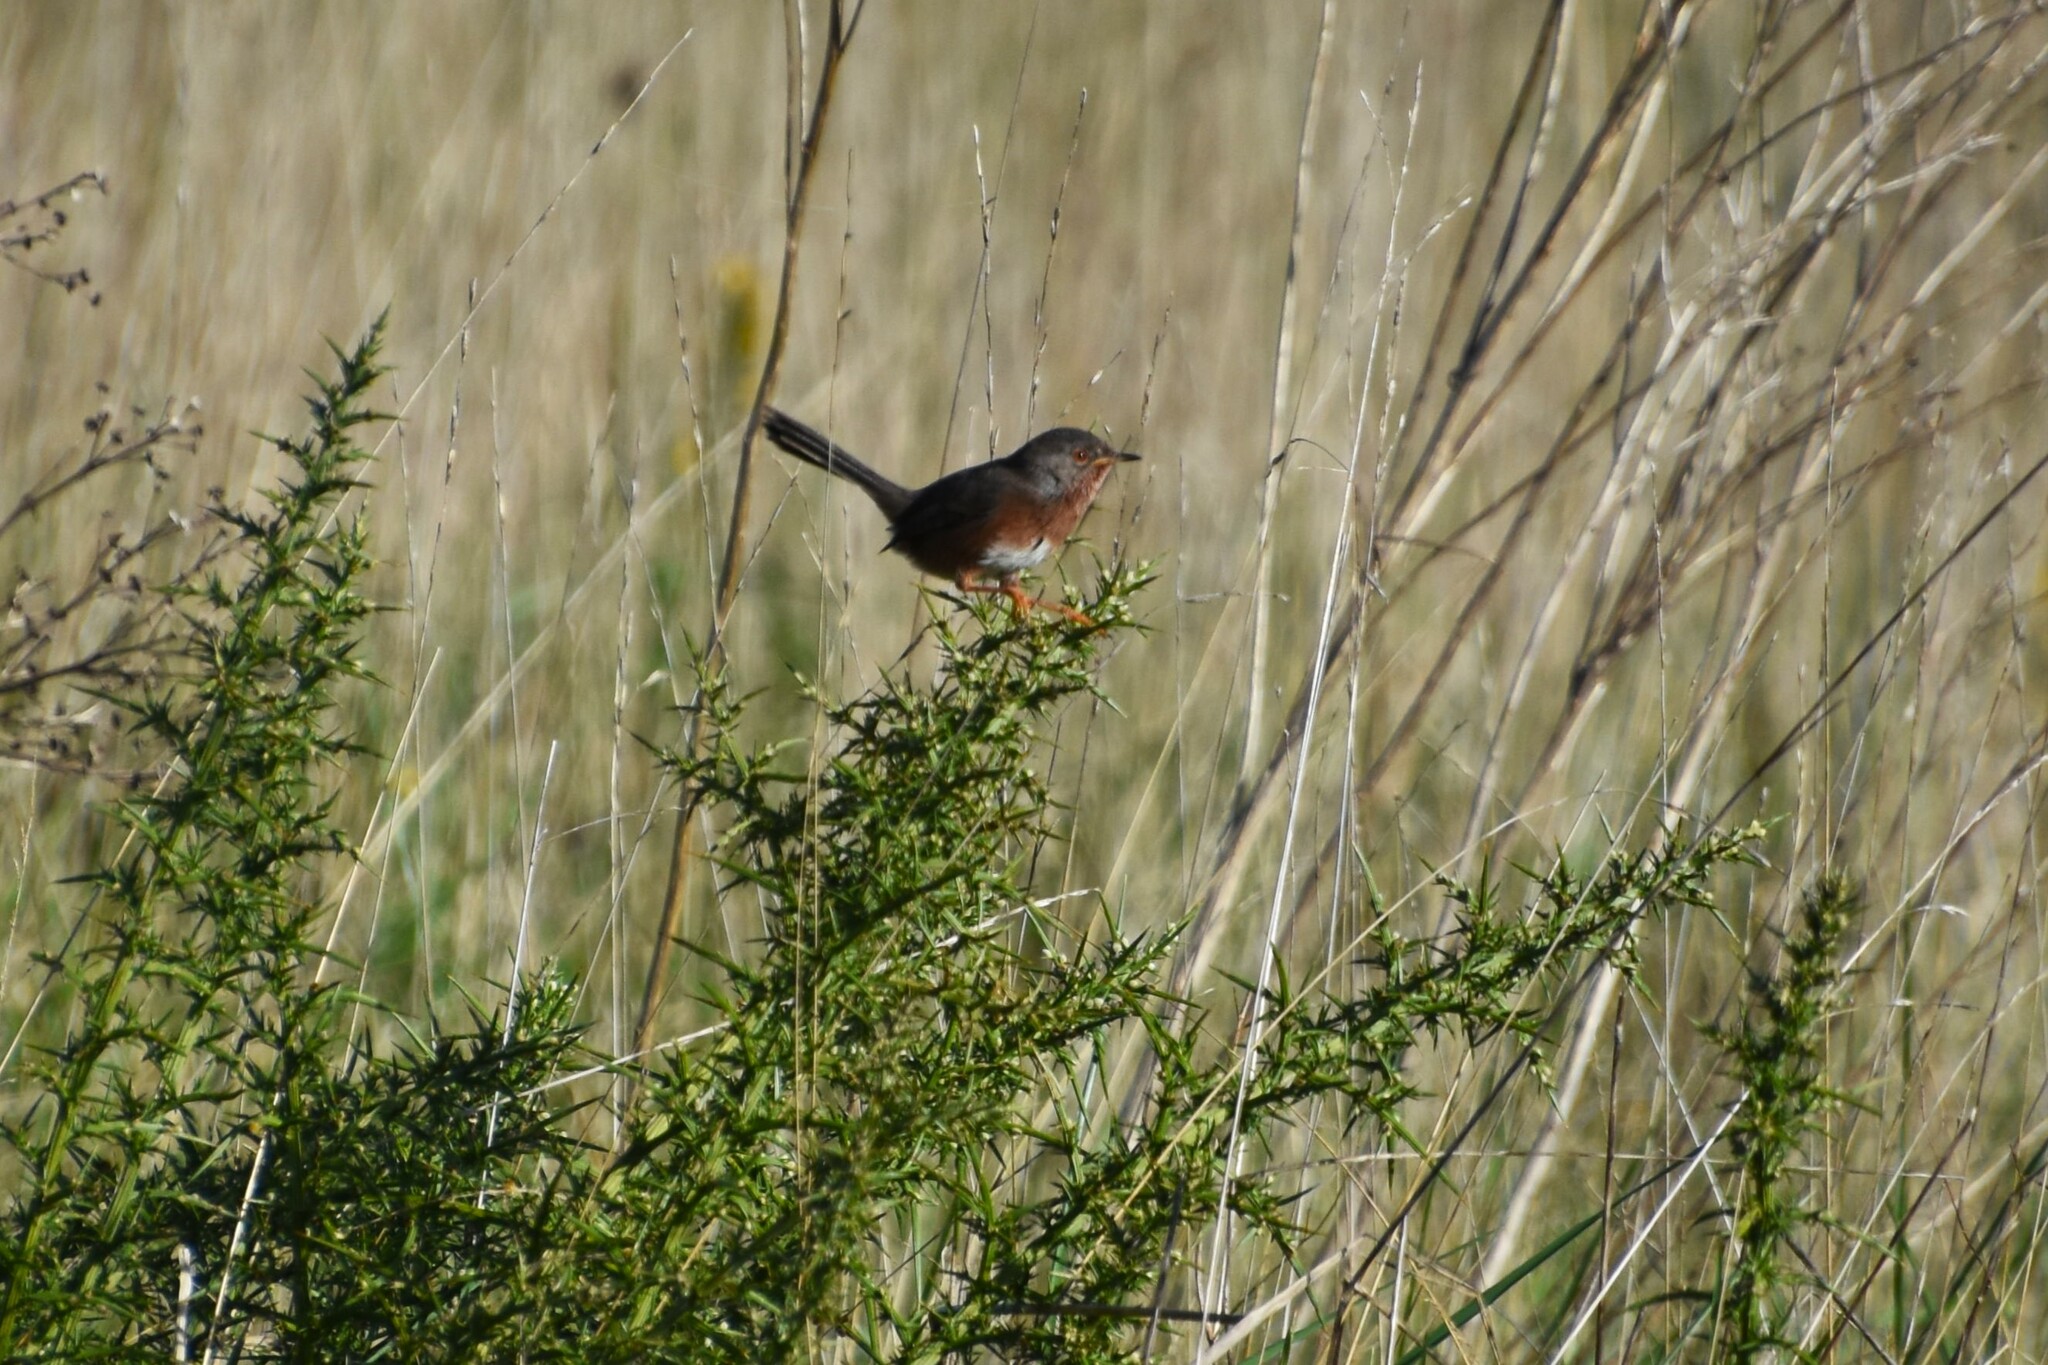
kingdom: Animalia
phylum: Chordata
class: Aves
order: Passeriformes
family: Sylviidae
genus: Sylvia
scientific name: Sylvia undata
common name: Dartford warbler
